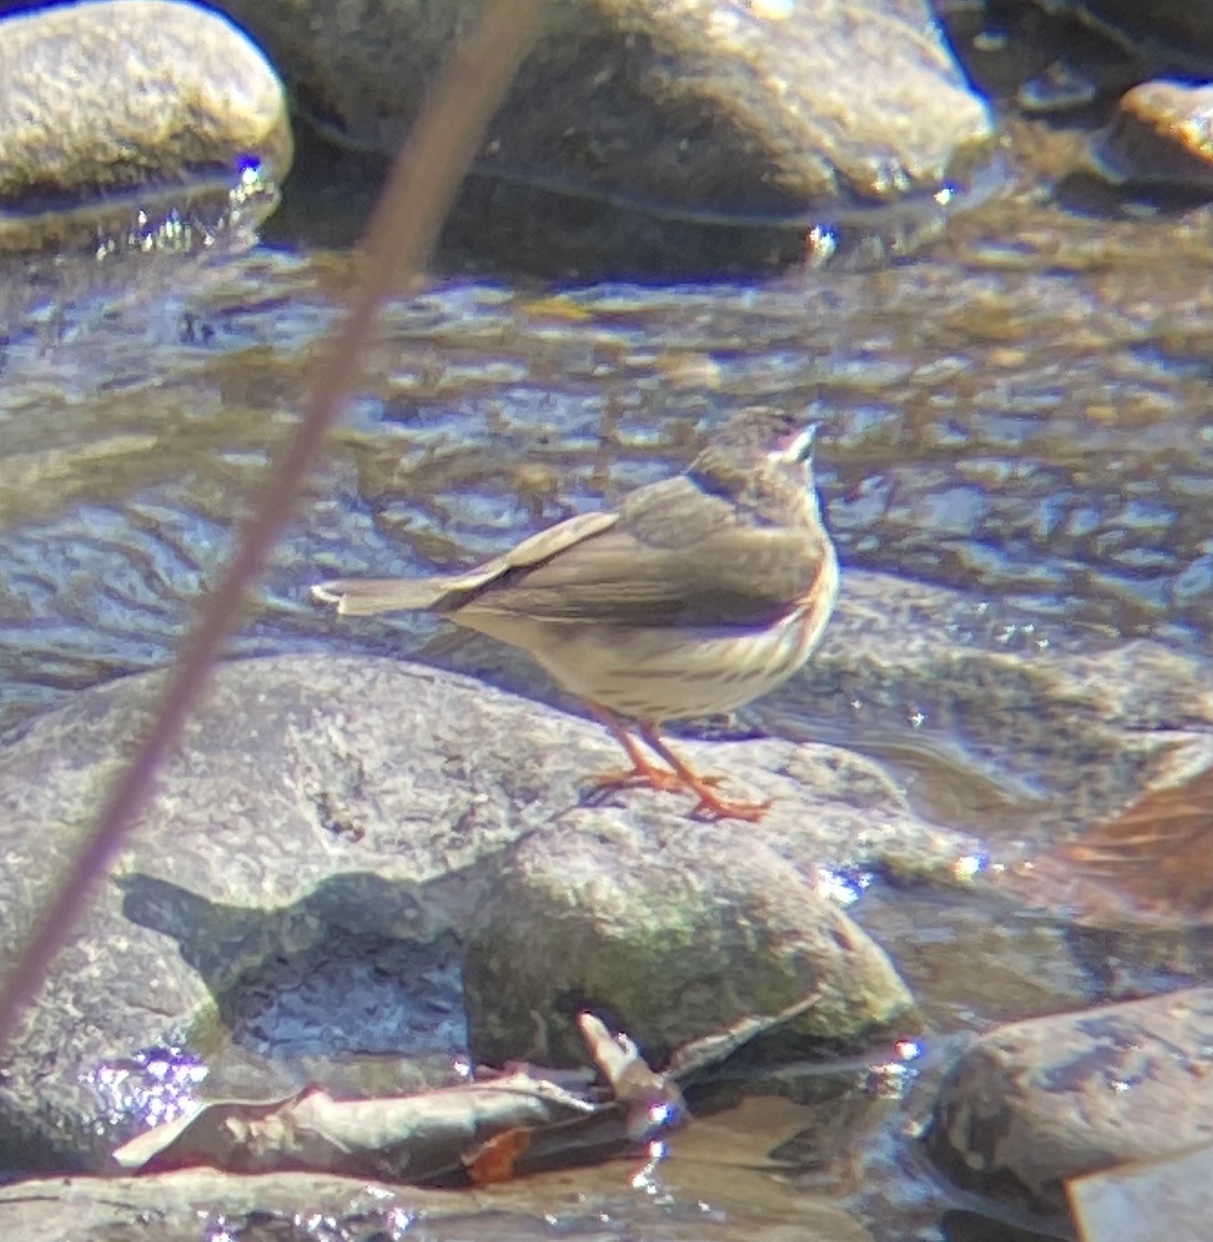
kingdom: Animalia
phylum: Chordata
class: Aves
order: Passeriformes
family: Parulidae
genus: Parkesia
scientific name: Parkesia motacilla
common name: Louisiana waterthrush
